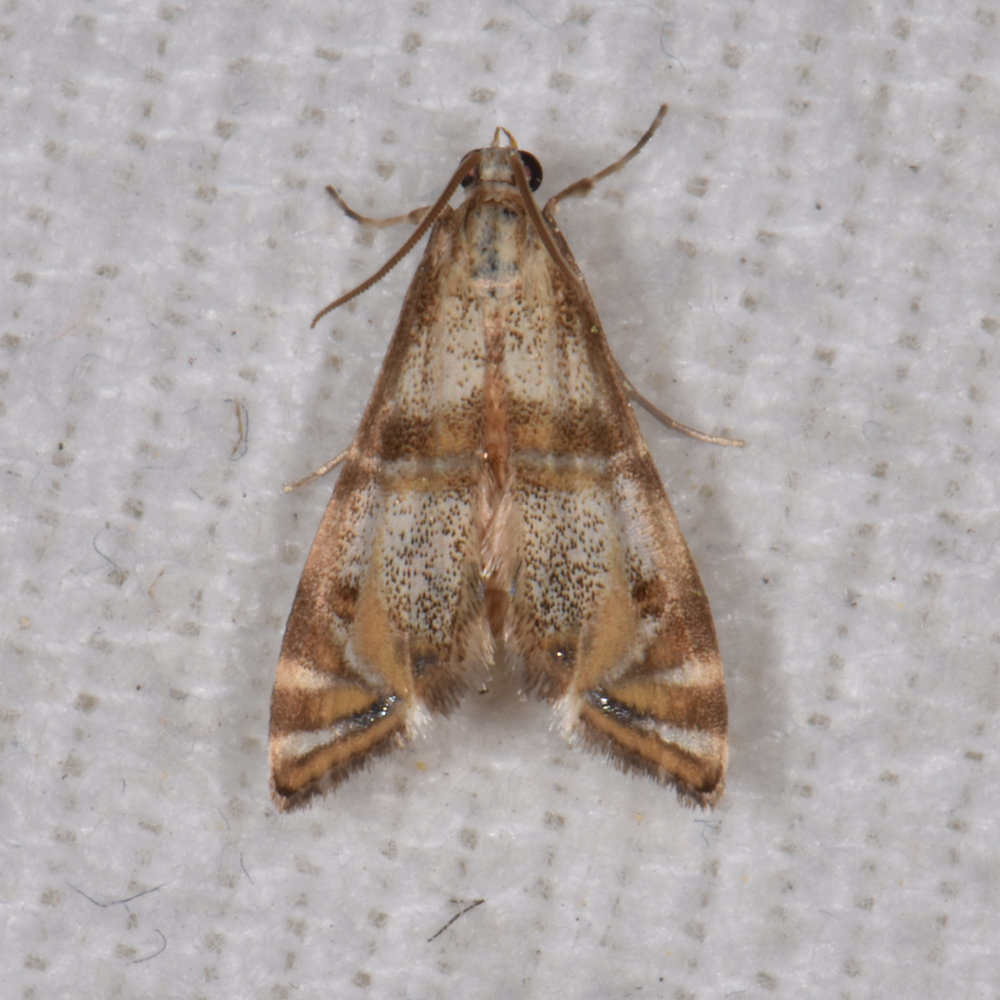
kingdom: Animalia
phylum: Arthropoda
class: Insecta
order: Lepidoptera
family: Crambidae
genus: Petrophila
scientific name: Petrophila bifascialis
